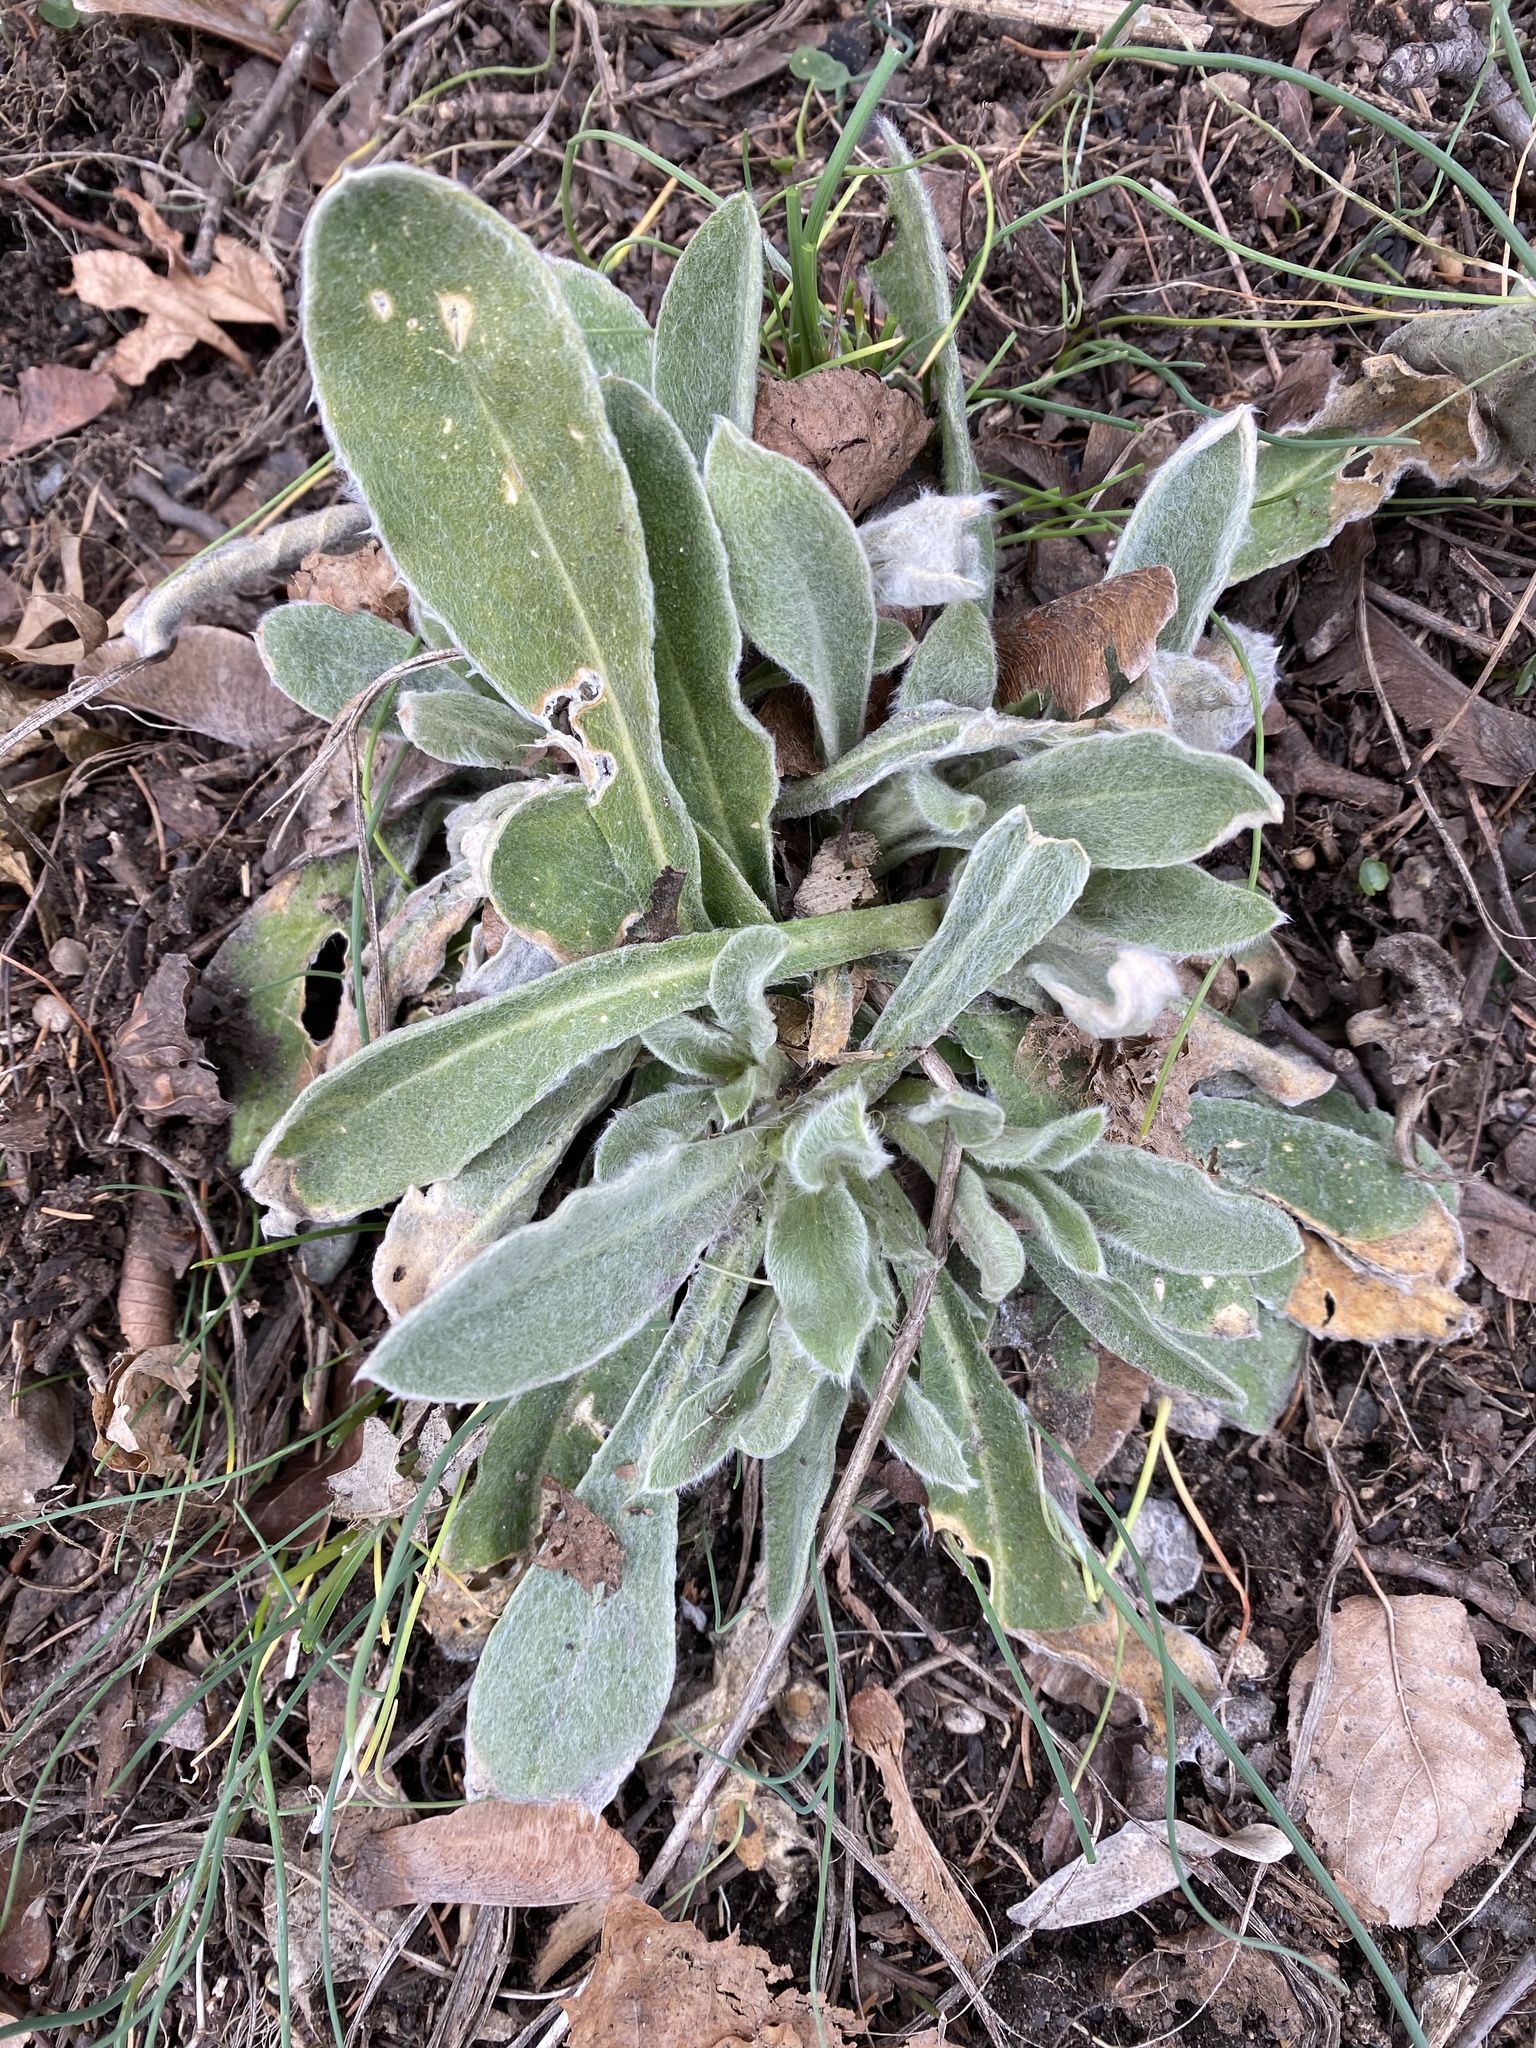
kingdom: Plantae
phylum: Tracheophyta
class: Magnoliopsida
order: Caryophyllales
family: Caryophyllaceae
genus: Silene
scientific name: Silene coronaria
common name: Rose campion
